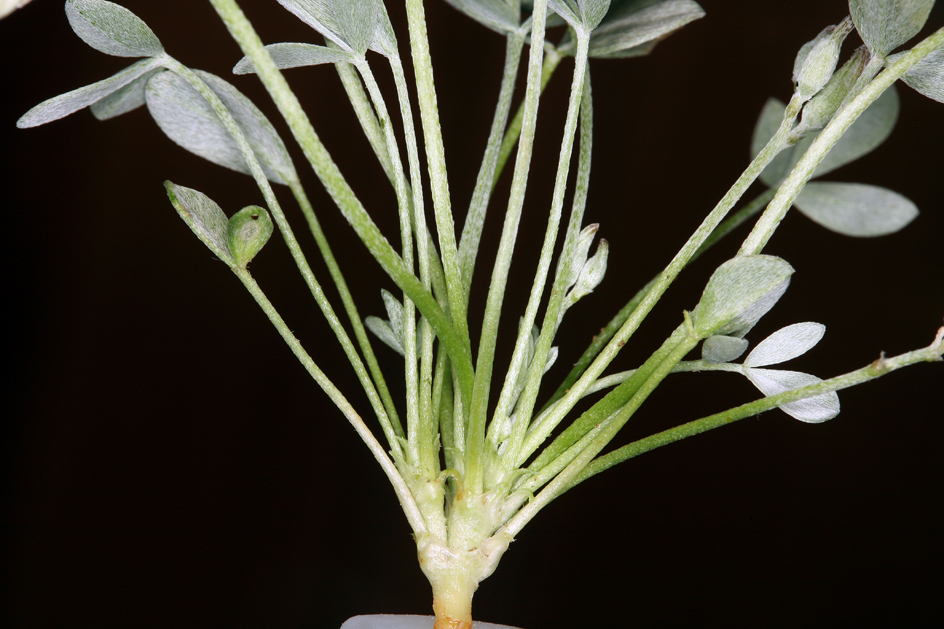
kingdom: Plantae
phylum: Tracheophyta
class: Magnoliopsida
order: Fabales
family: Fabaceae
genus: Astragalus
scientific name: Astragalus calycosus
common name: King's milkvetch
